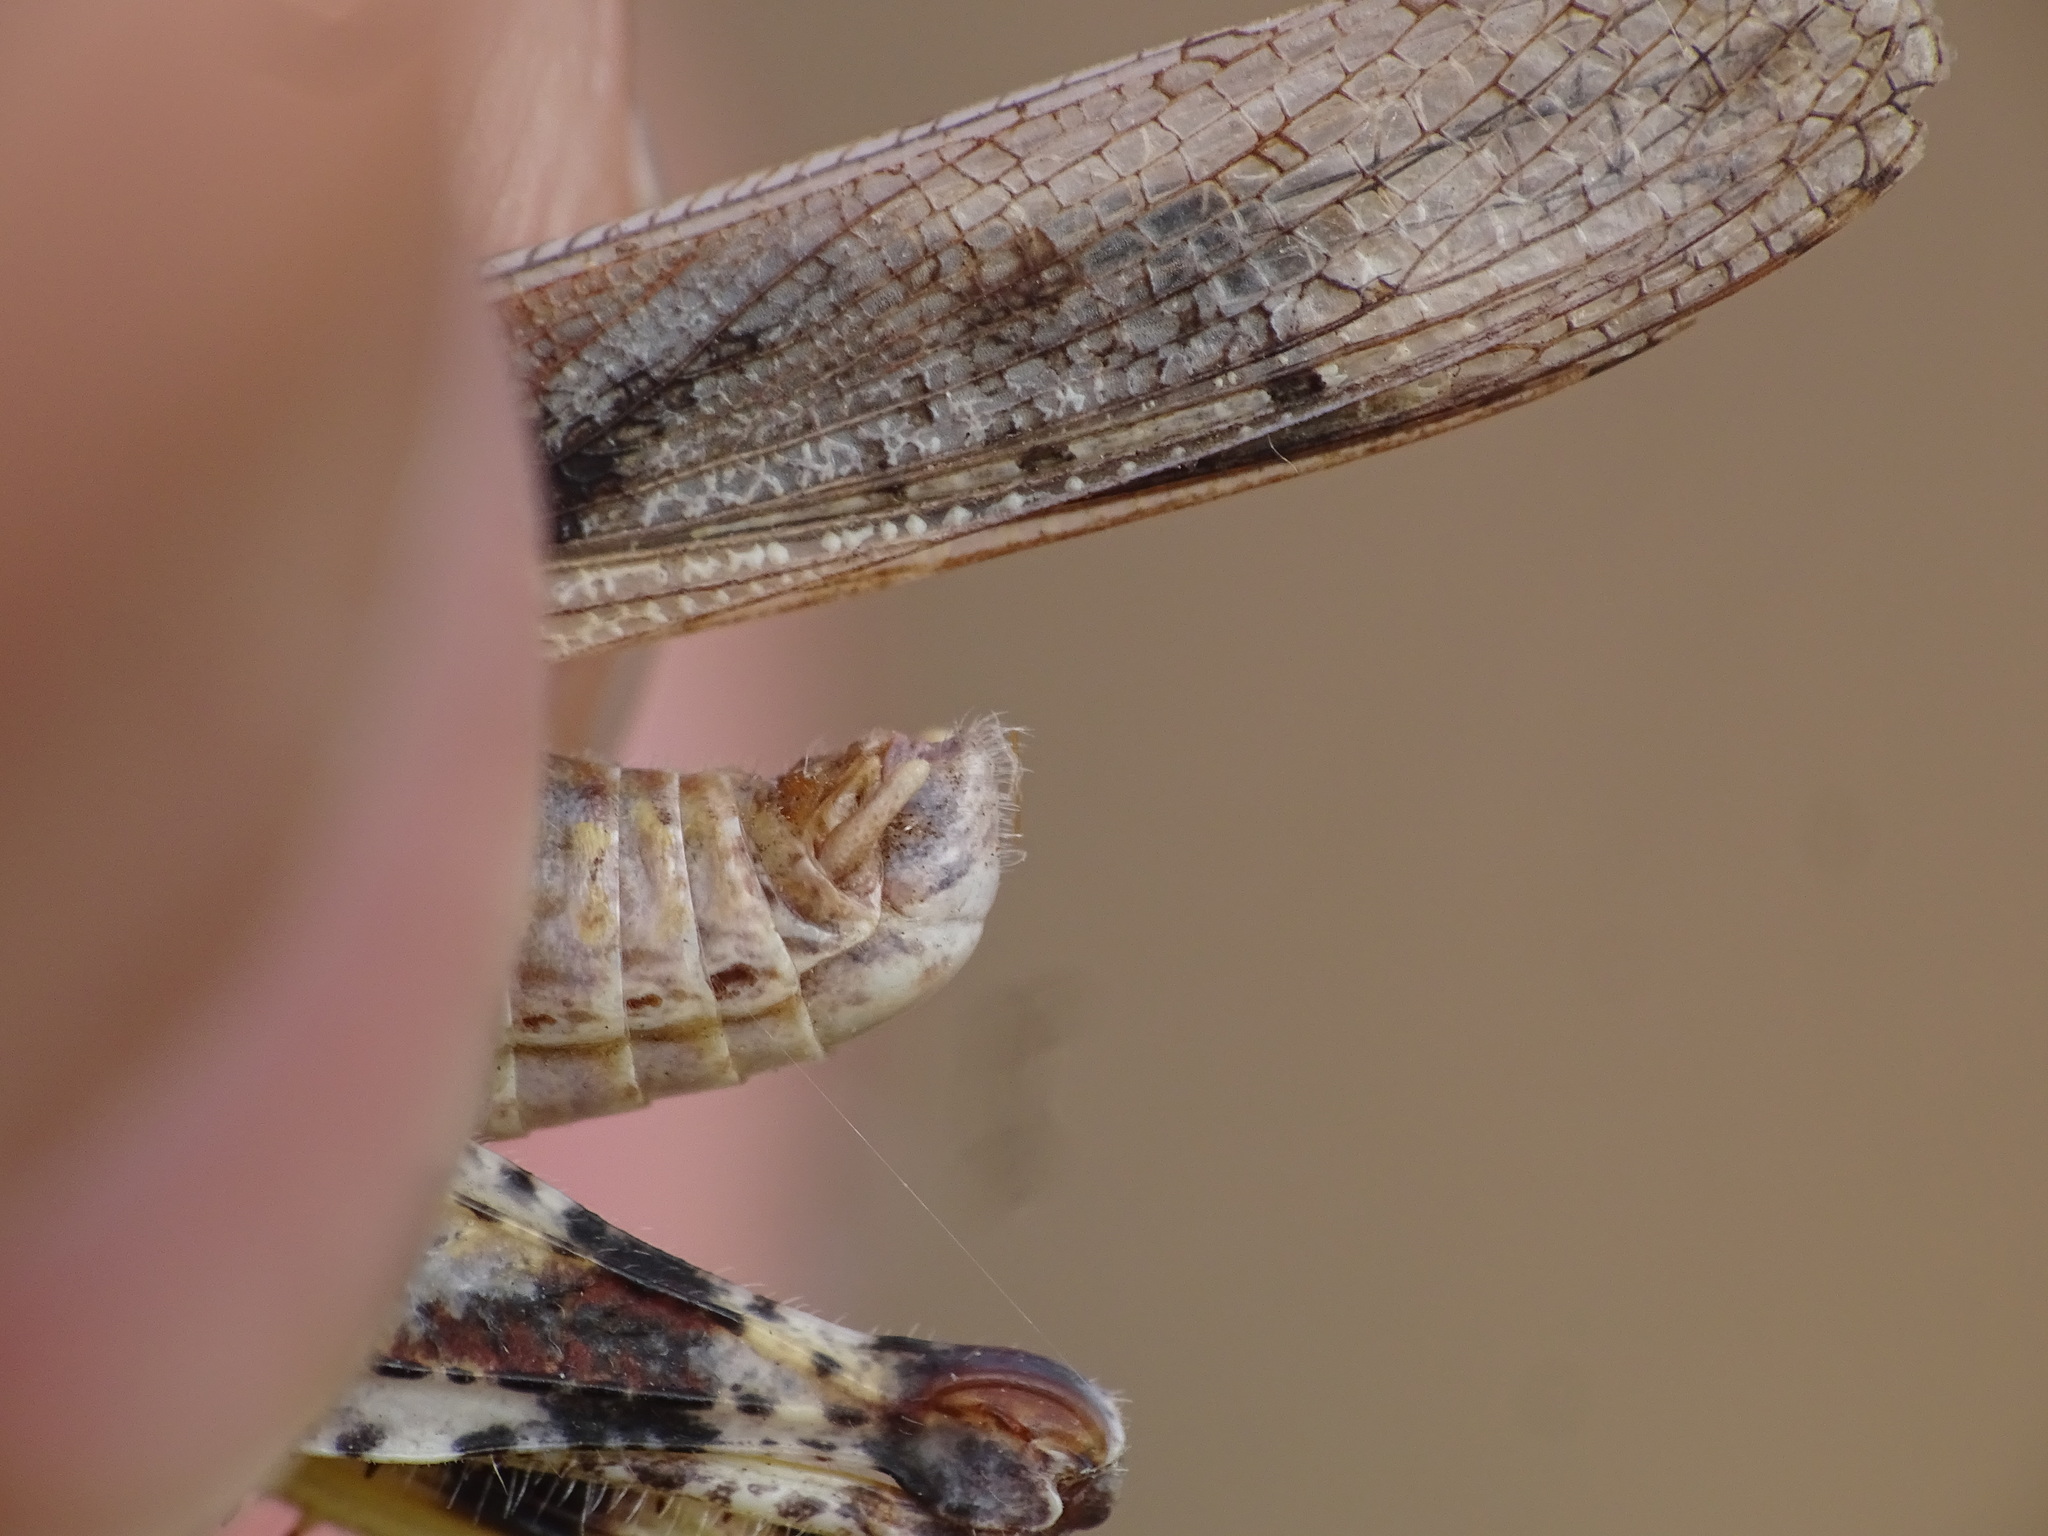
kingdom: Animalia
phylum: Arthropoda
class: Insecta
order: Orthoptera
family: Acrididae
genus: Trimerotropis
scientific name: Trimerotropis maritima
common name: Seaside locust
